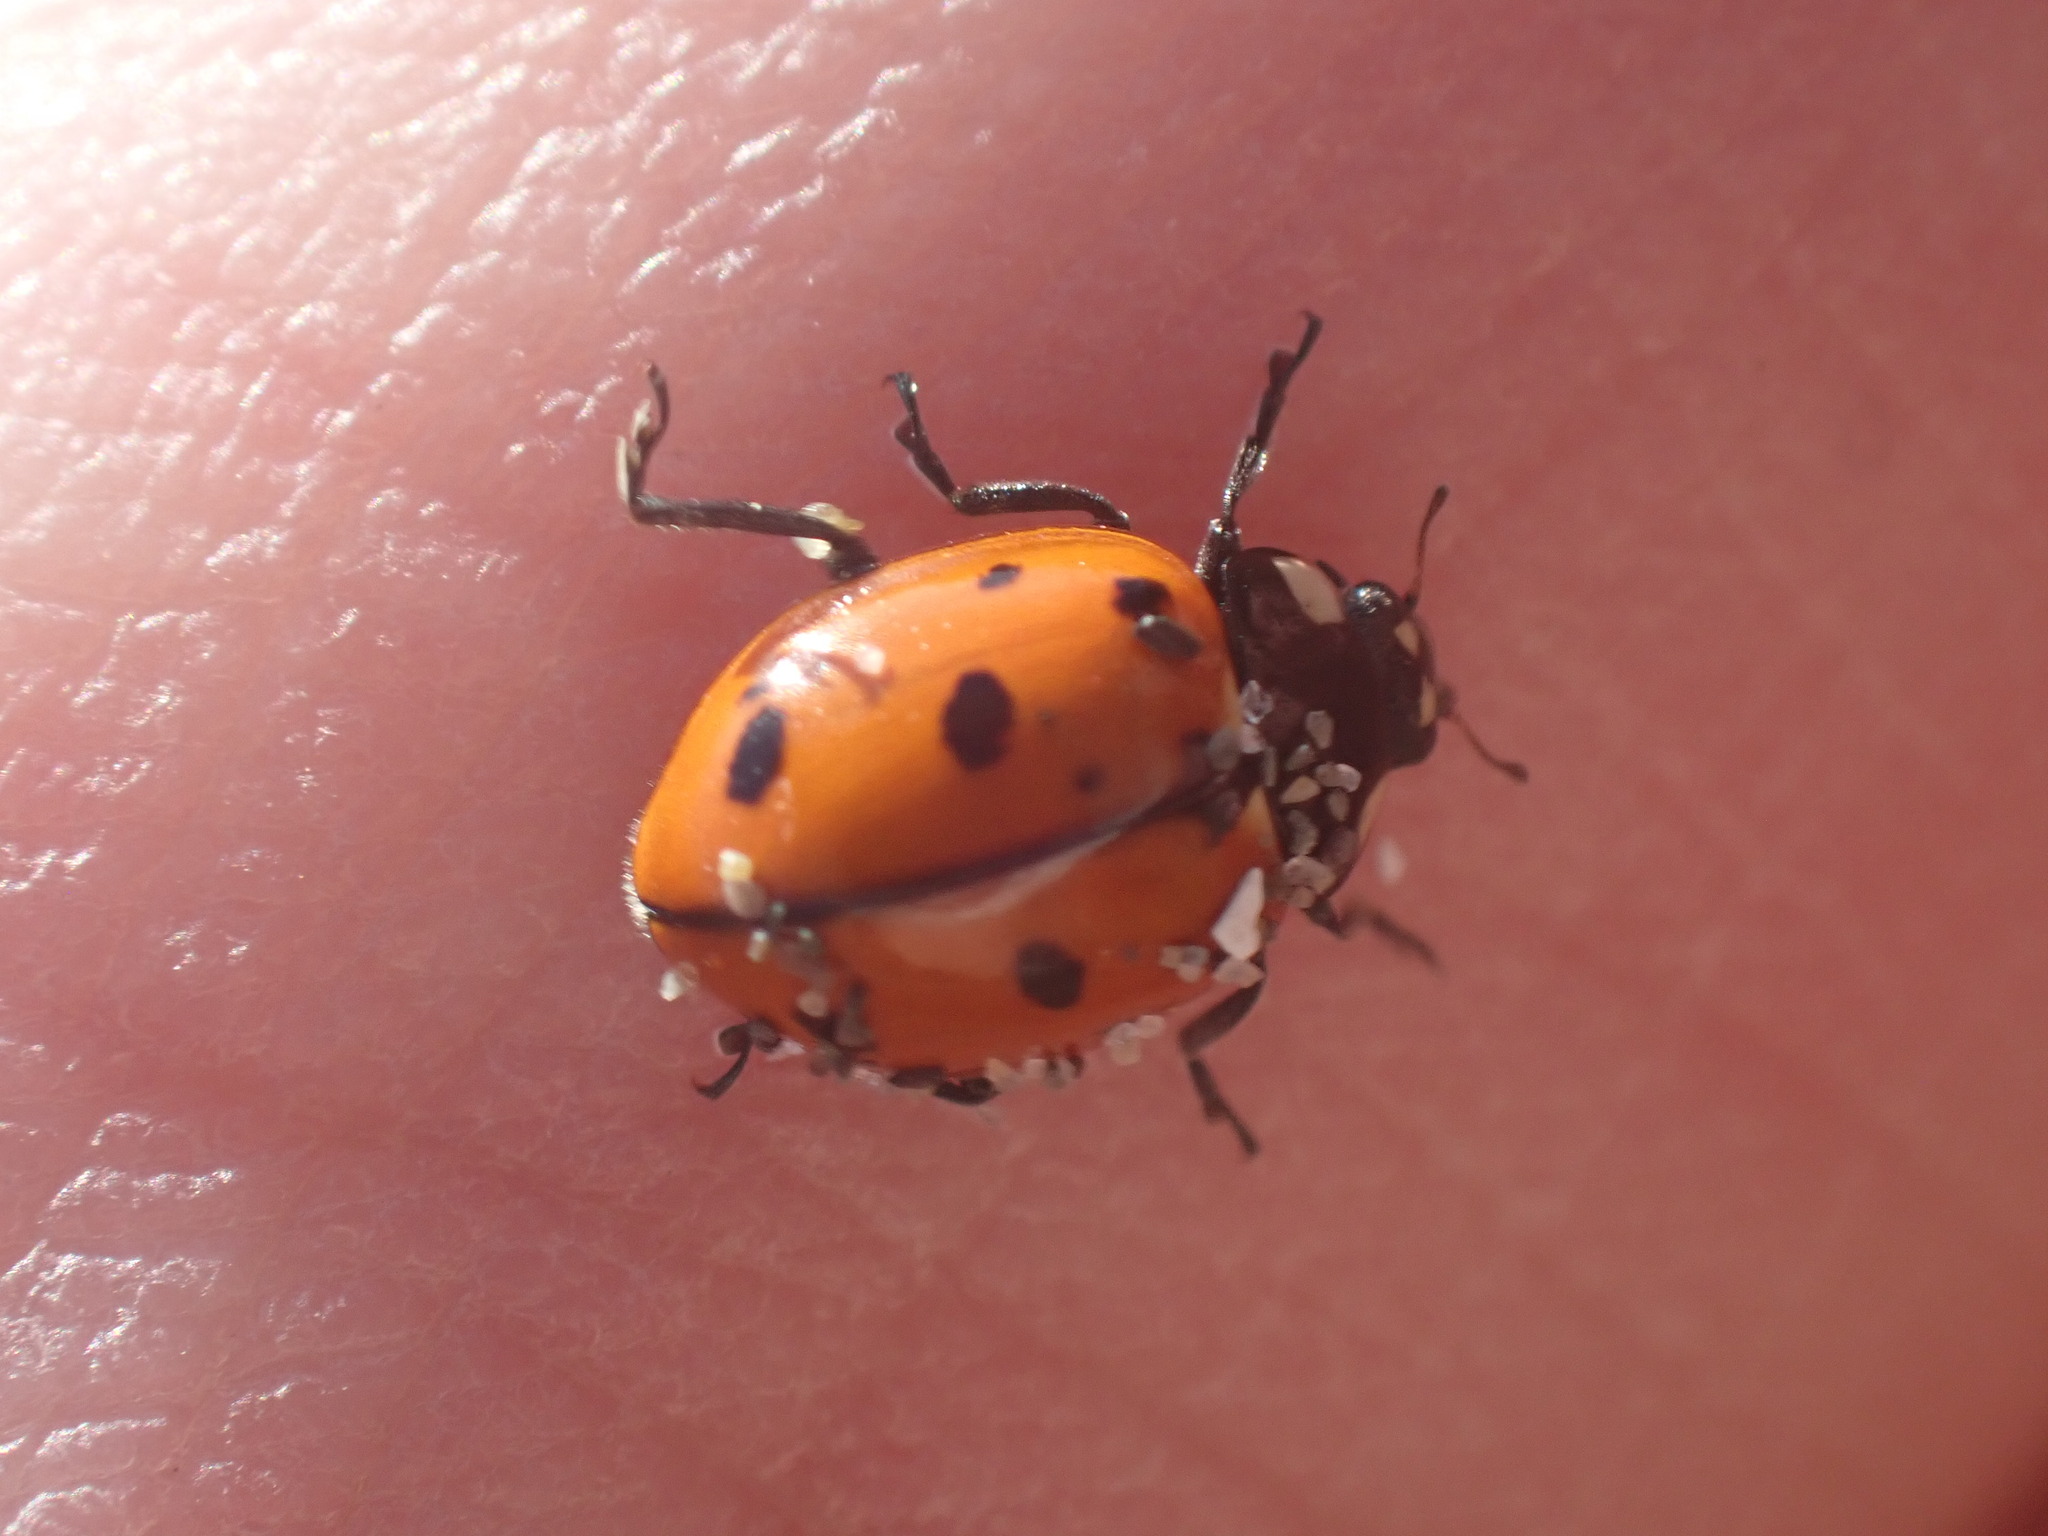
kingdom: Animalia
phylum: Arthropoda
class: Insecta
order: Coleoptera
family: Coccinellidae
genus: Coccinella
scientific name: Coccinella californica
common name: Lady beetle
